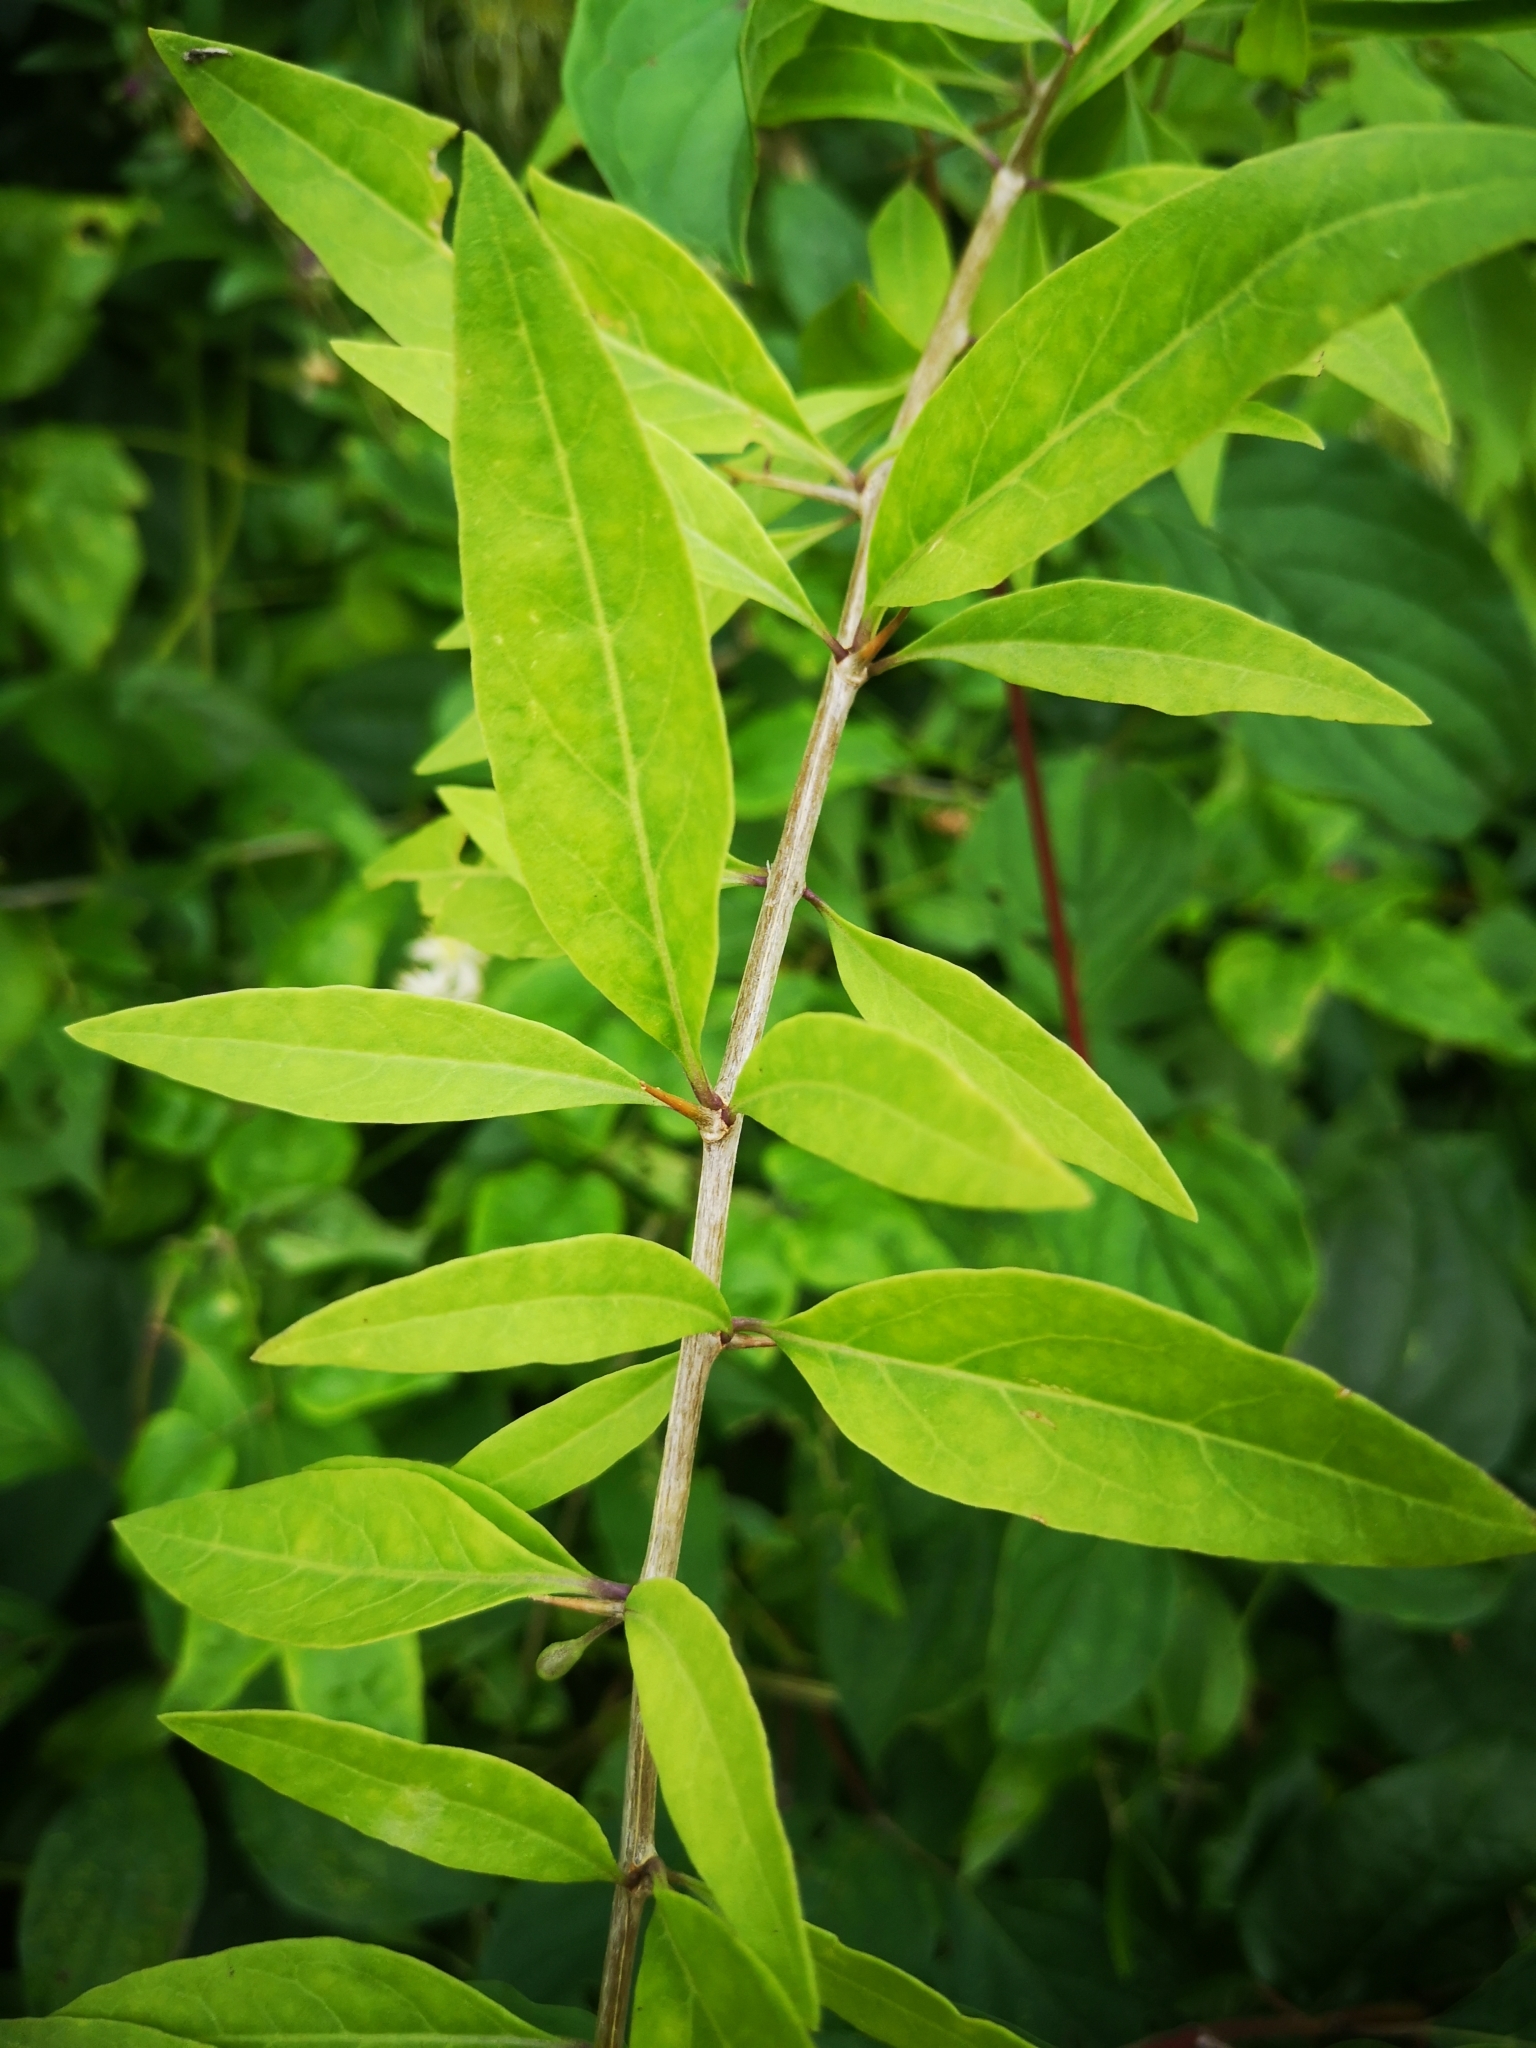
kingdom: Plantae
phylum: Tracheophyta
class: Magnoliopsida
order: Solanales
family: Solanaceae
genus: Lycium
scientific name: Lycium barbarum
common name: Duke of argyll's teaplant
